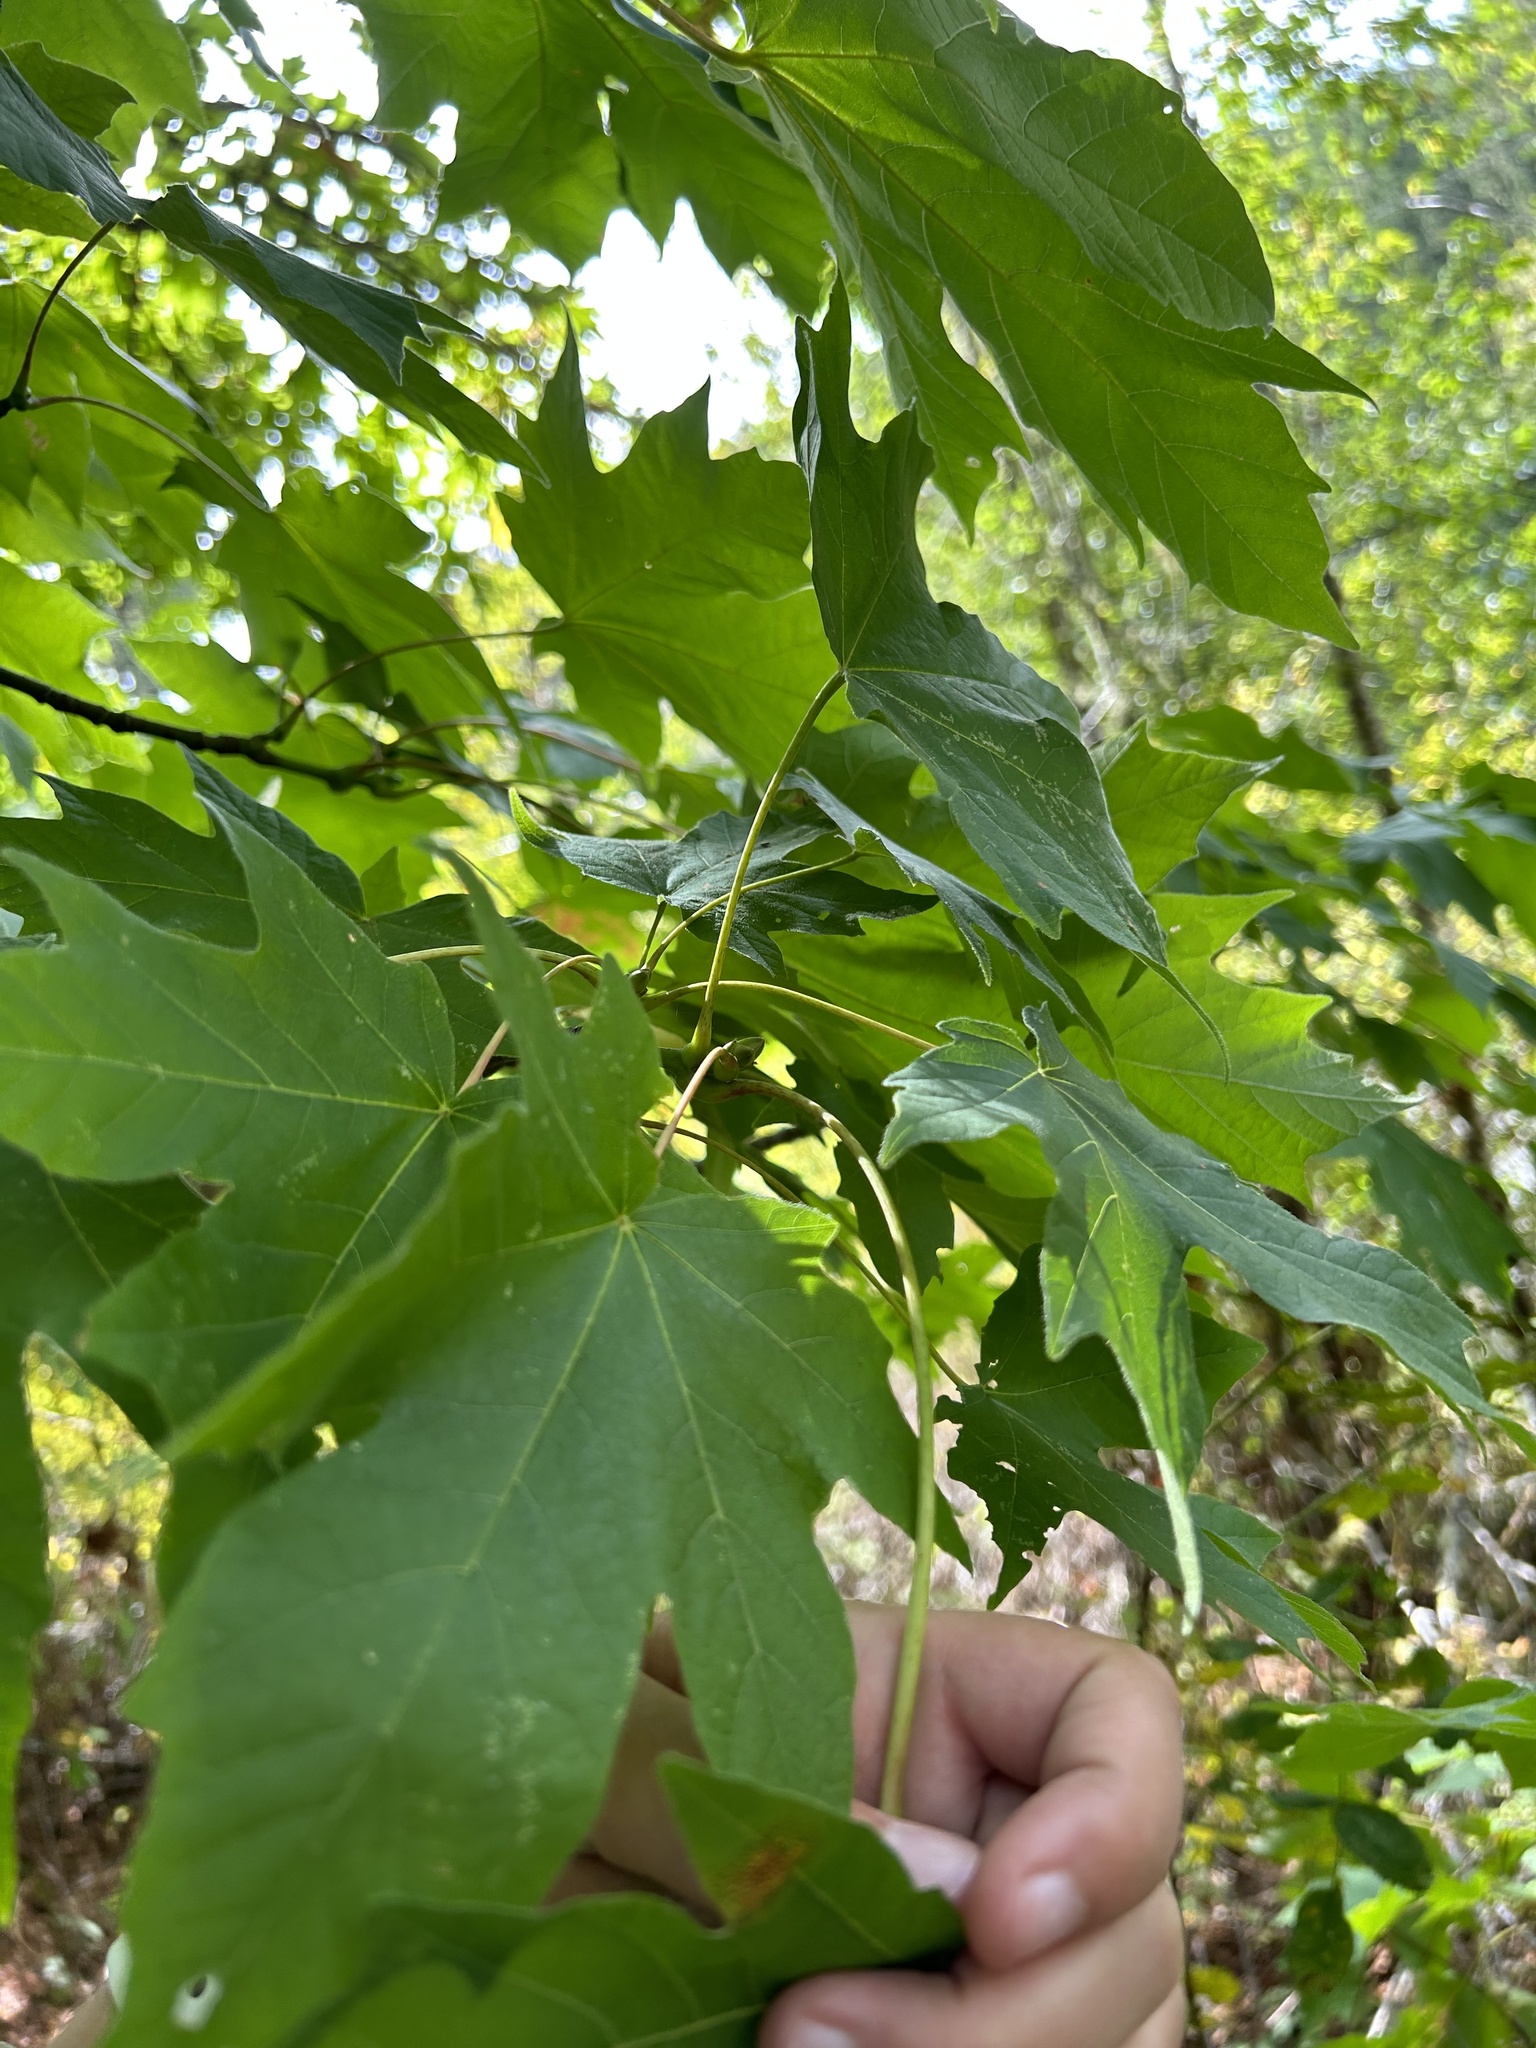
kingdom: Plantae
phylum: Tracheophyta
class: Magnoliopsida
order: Sapindales
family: Sapindaceae
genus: Acer
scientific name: Acer macrophyllum
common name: Oregon maple
